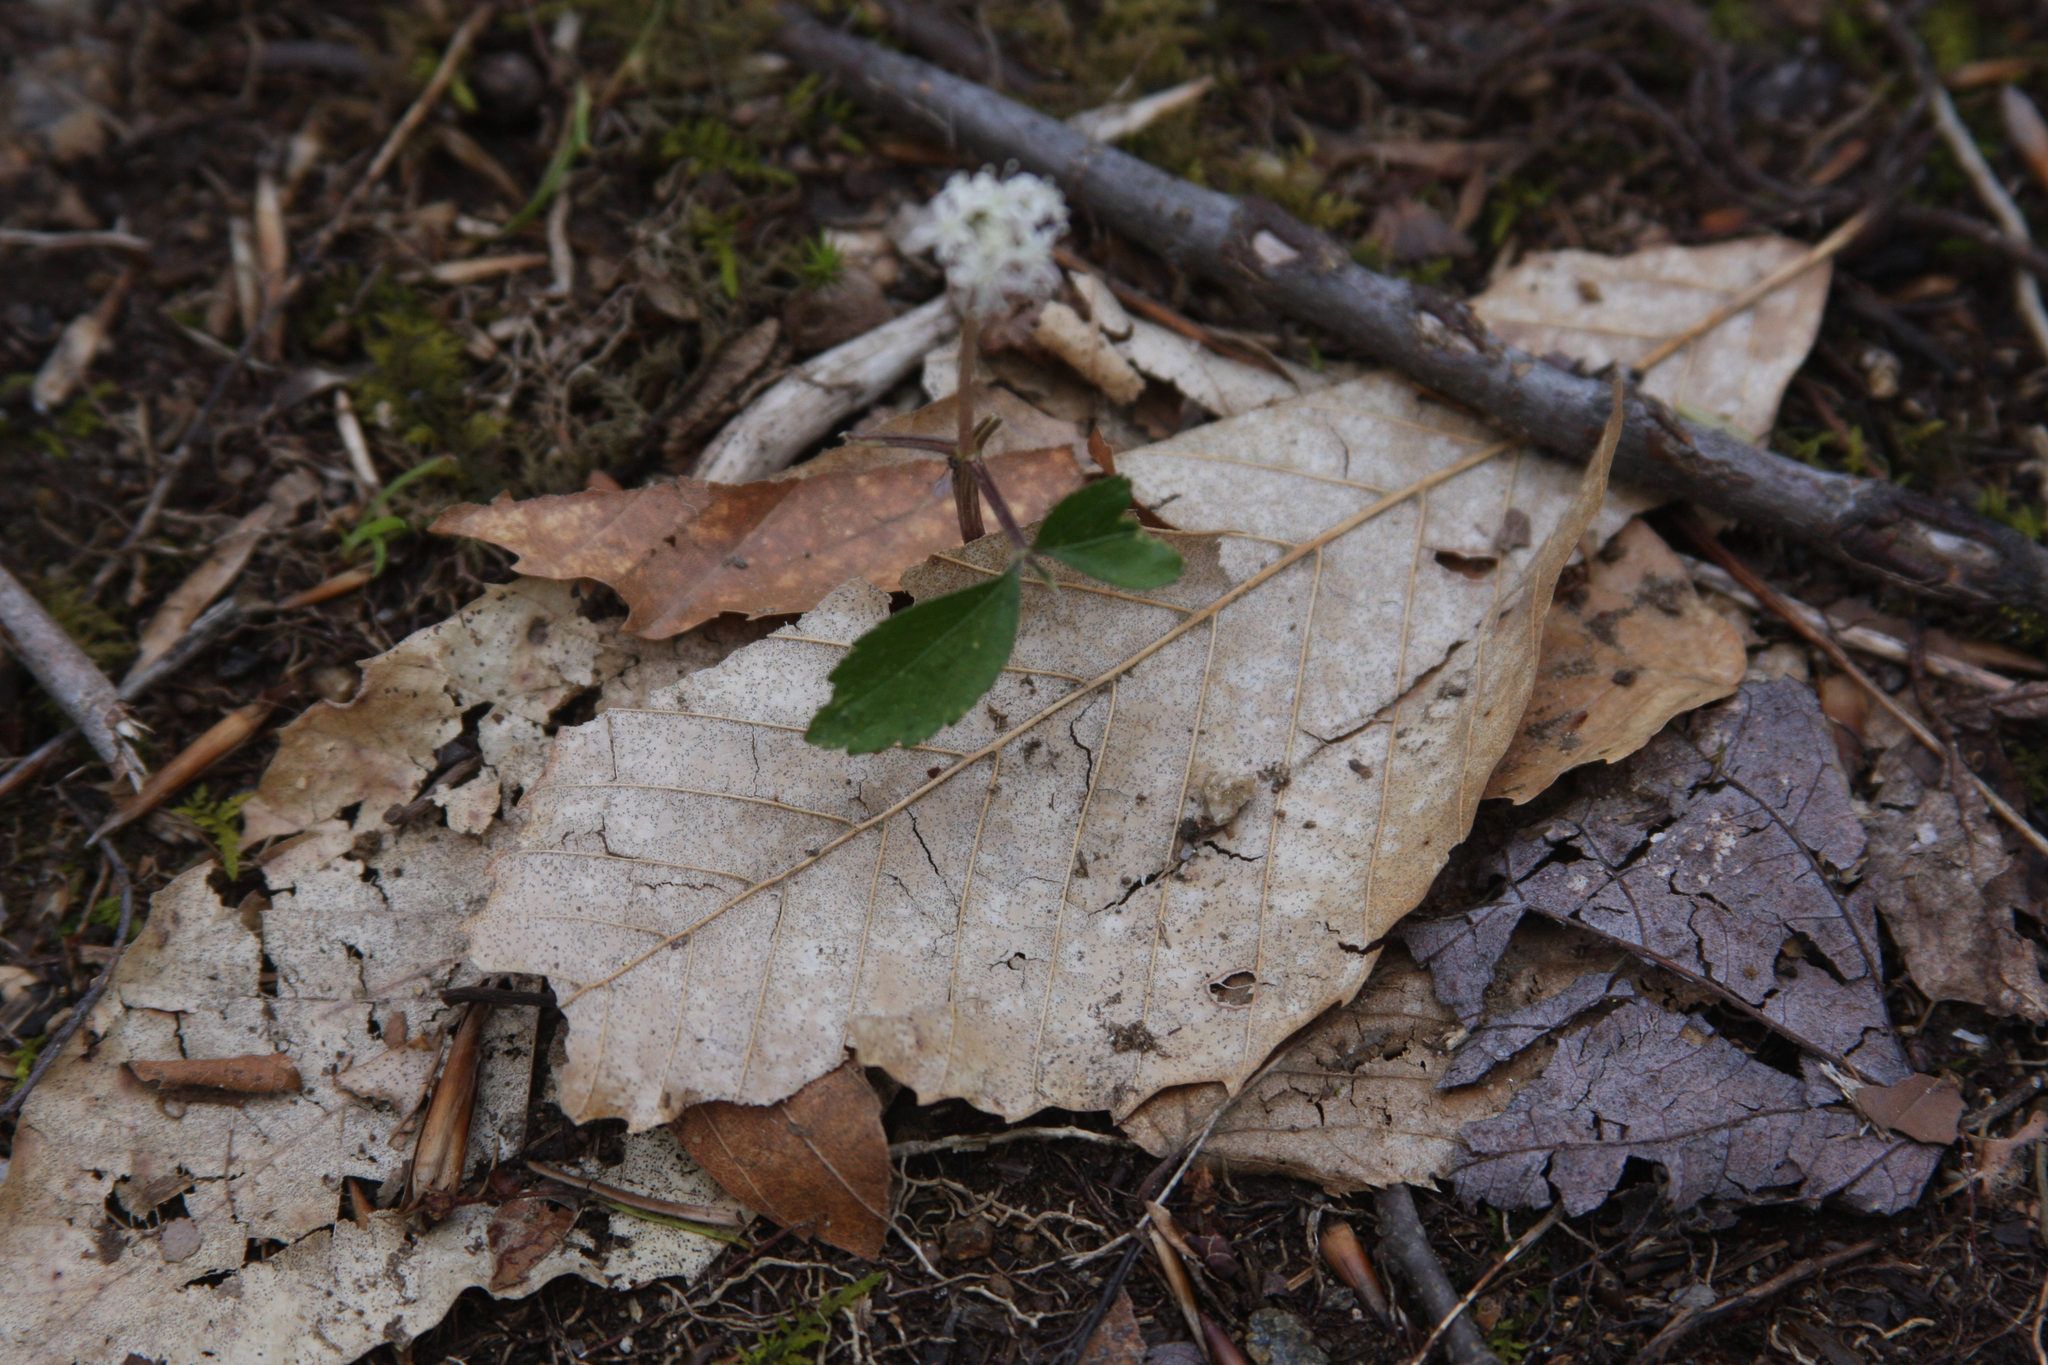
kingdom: Plantae
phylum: Tracheophyta
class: Magnoliopsida
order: Fagales
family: Fagaceae
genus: Fagus
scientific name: Fagus grandifolia
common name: American beech
